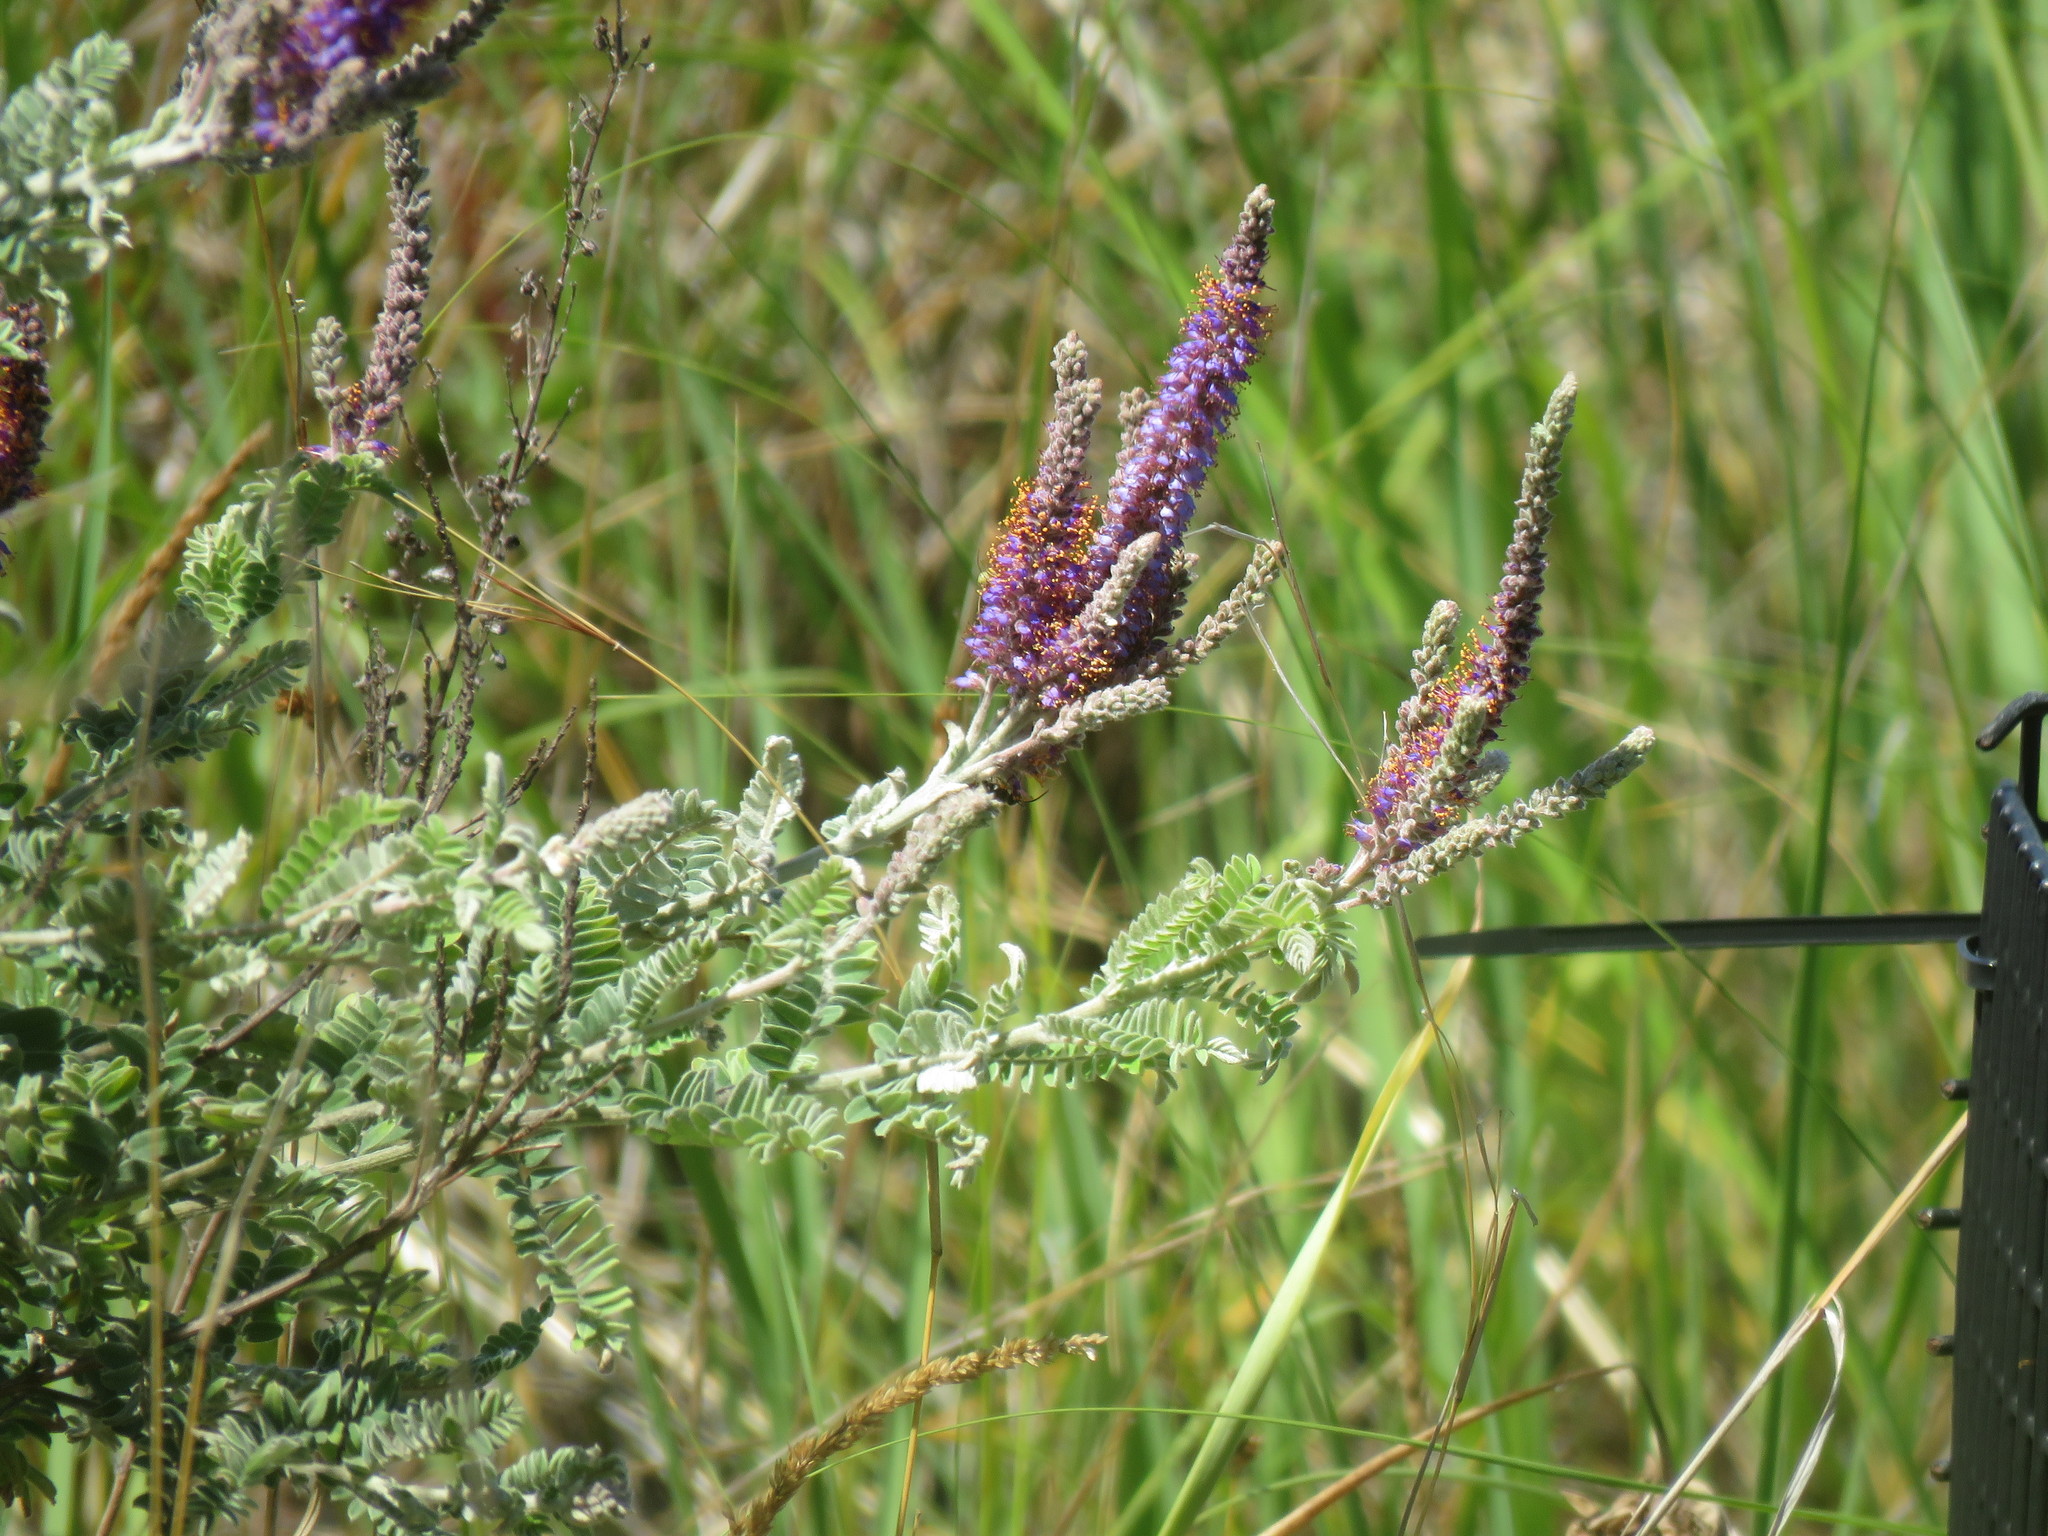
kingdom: Plantae
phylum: Tracheophyta
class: Magnoliopsida
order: Fabales
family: Fabaceae
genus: Amorpha
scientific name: Amorpha canescens
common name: Leadplant
